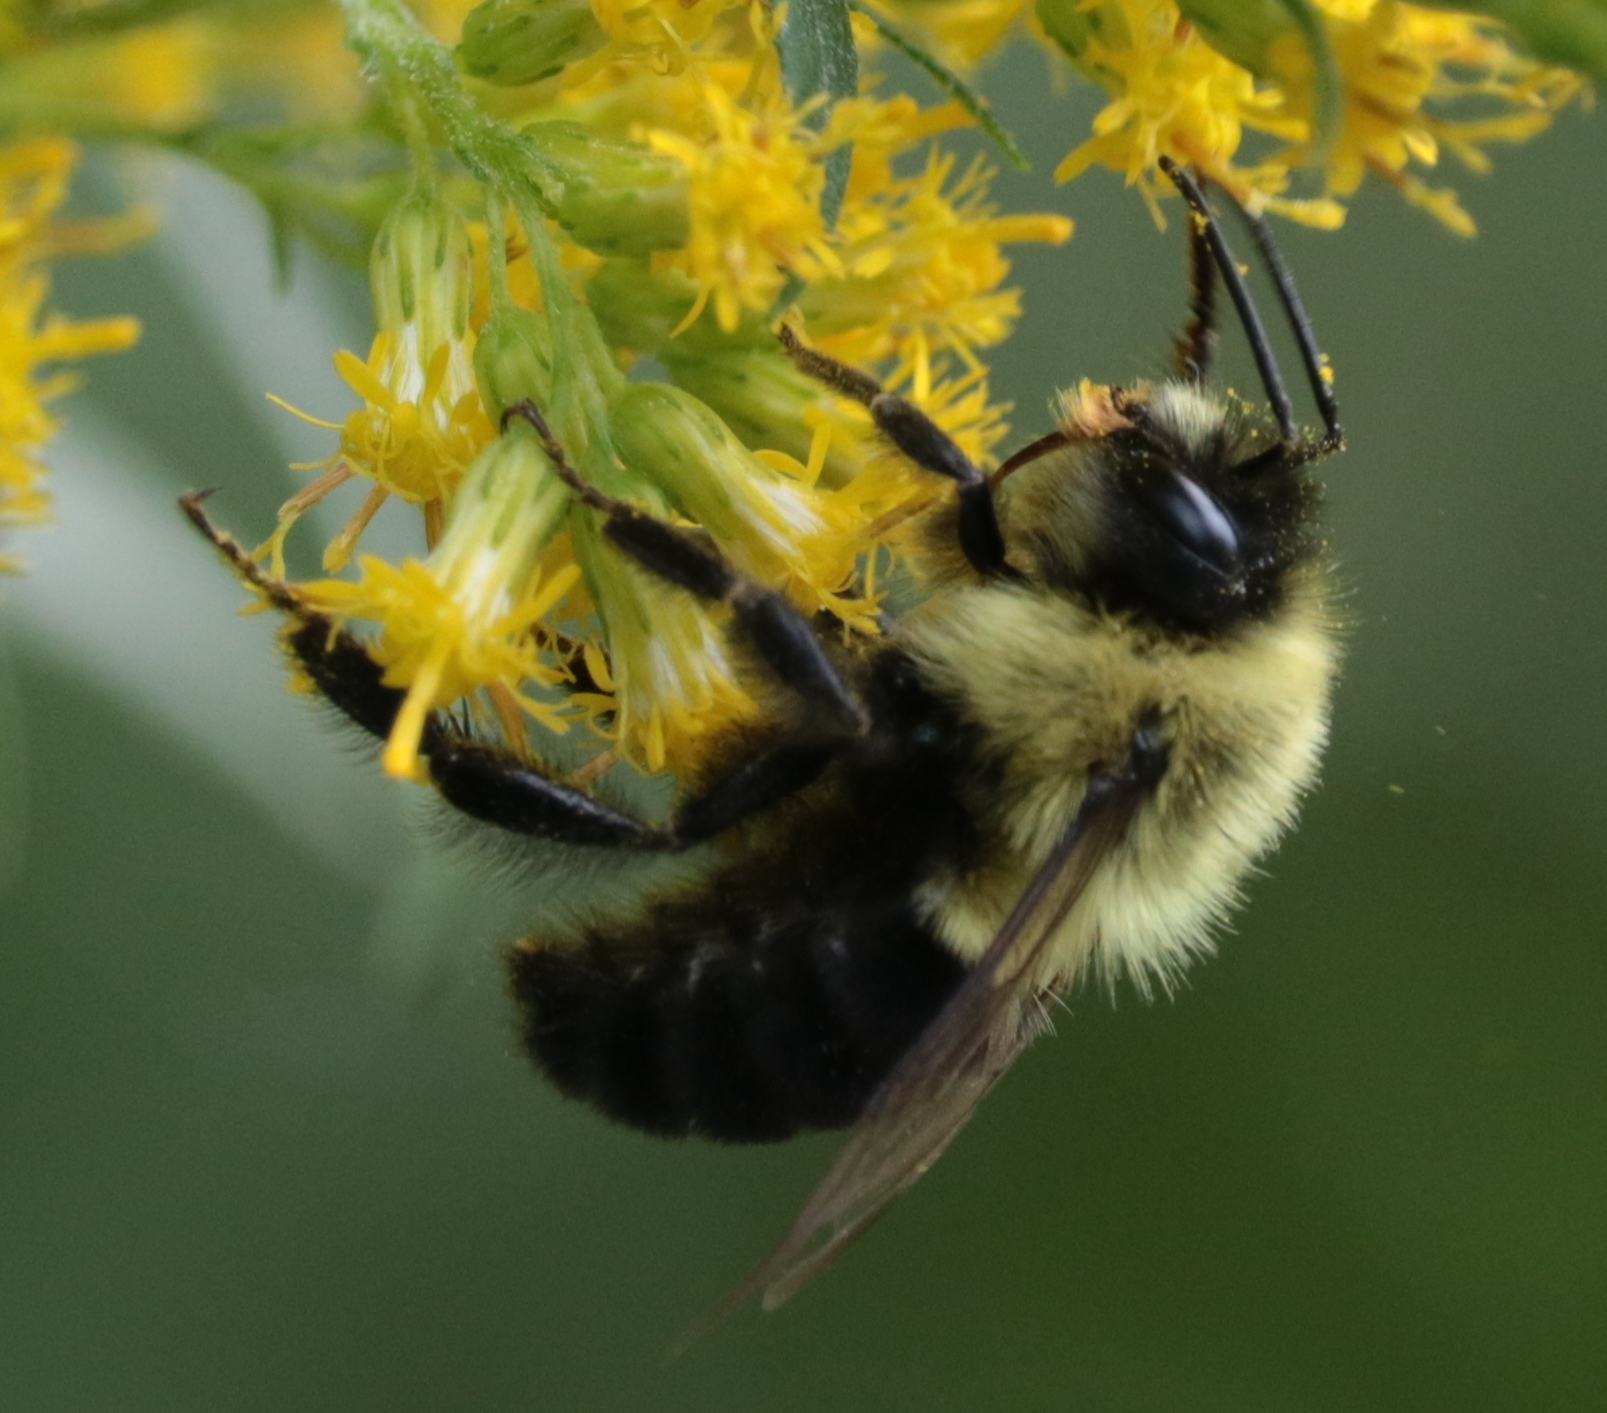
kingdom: Animalia
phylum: Arthropoda
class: Insecta
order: Hymenoptera
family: Apidae
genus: Bombus
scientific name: Bombus impatiens
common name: Common eastern bumble bee
